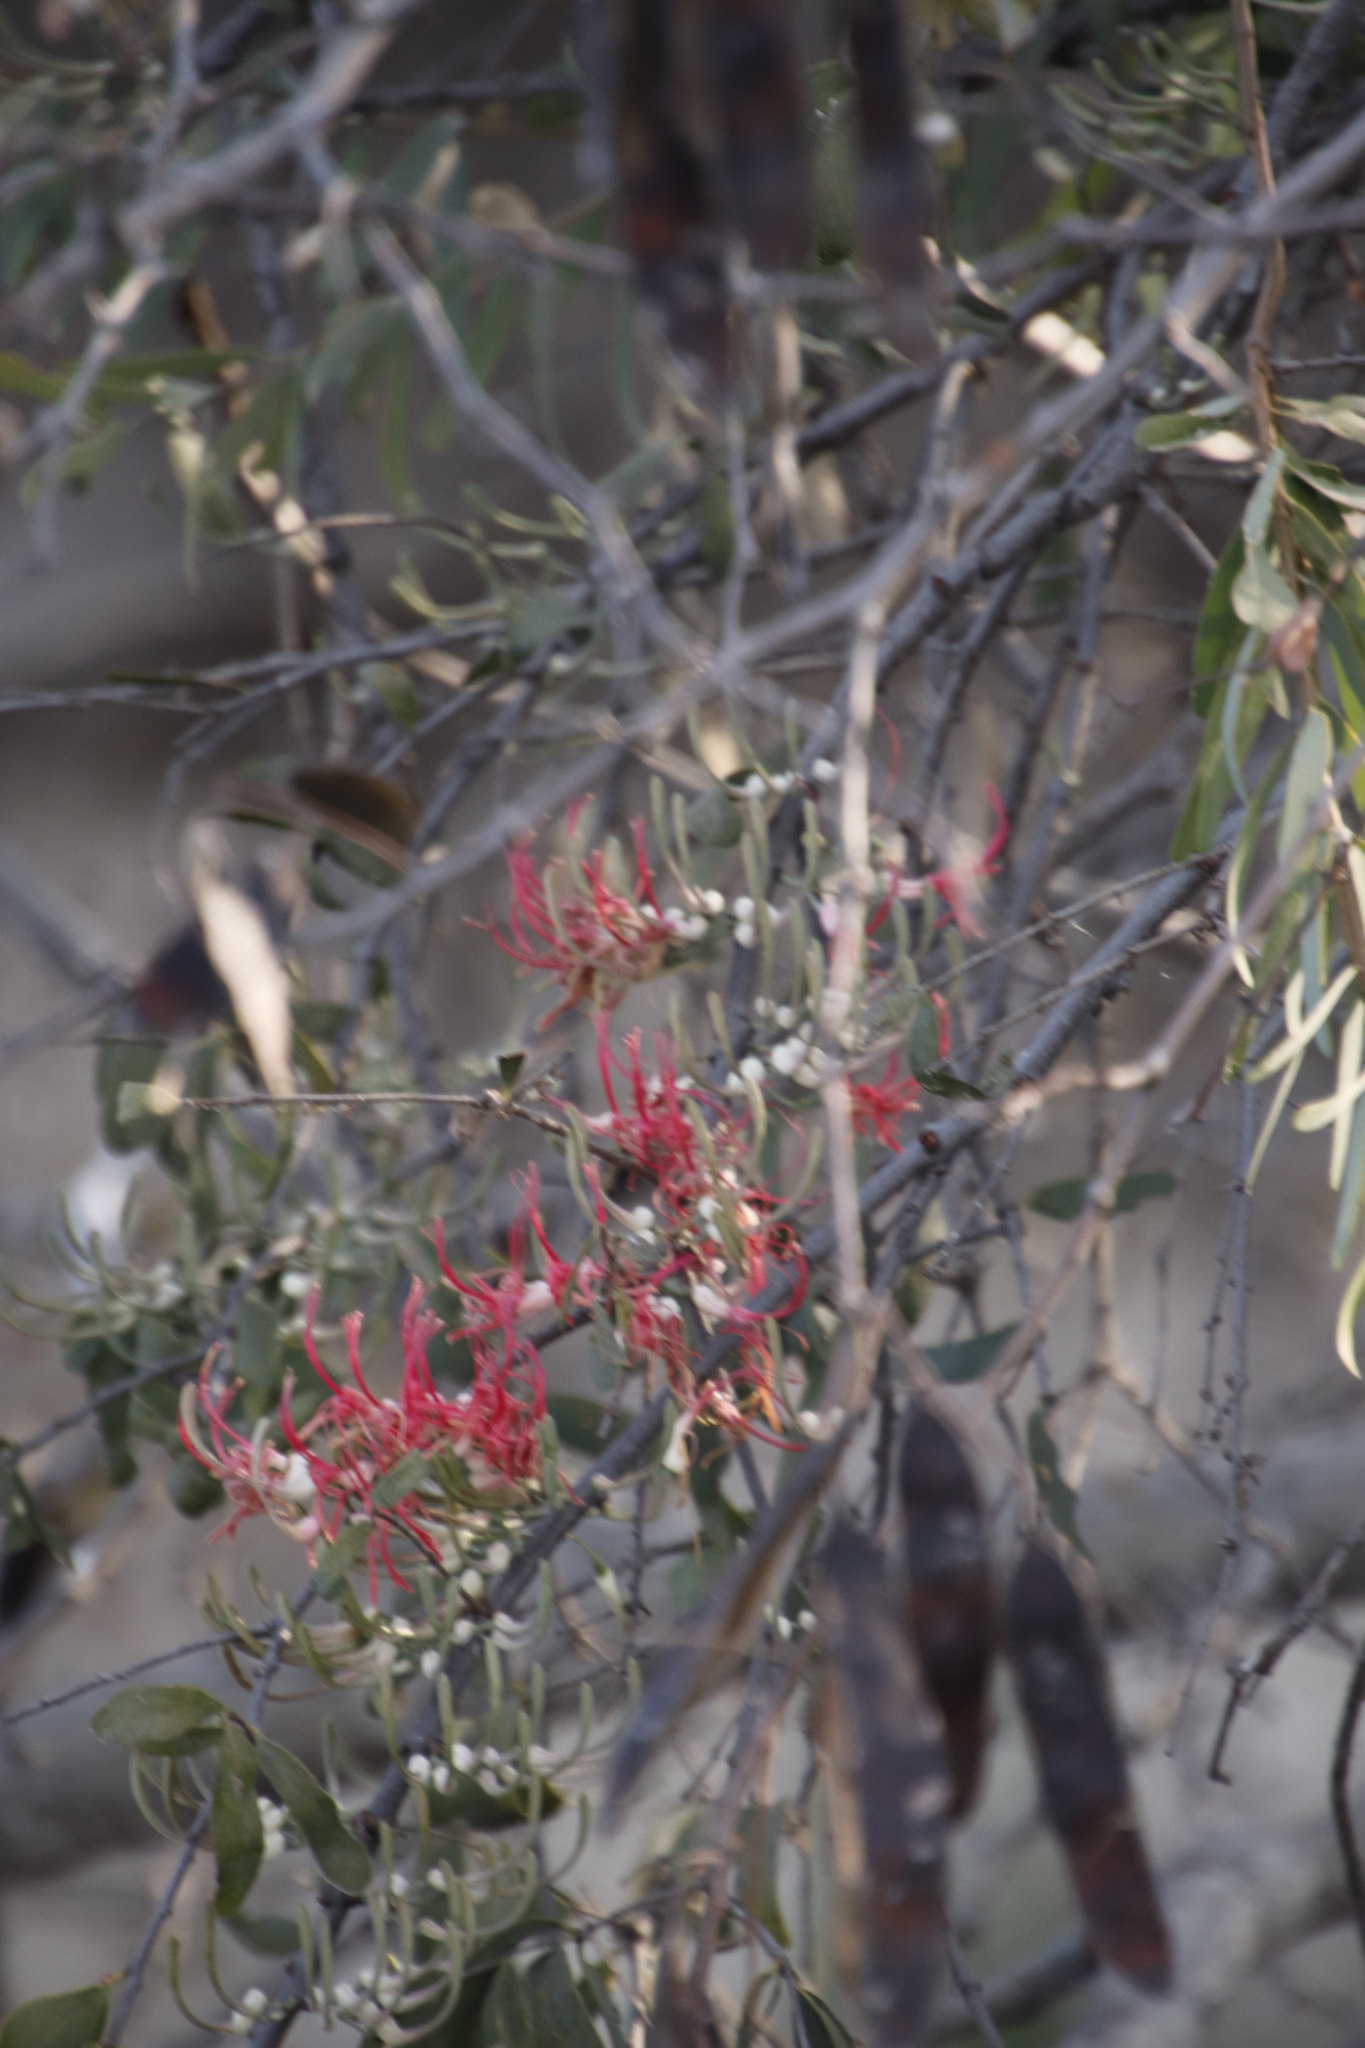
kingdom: Plantae
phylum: Tracheophyta
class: Magnoliopsida
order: Santalales
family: Loranthaceae
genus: Plicosepalus
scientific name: Plicosepalus kalachariensis
